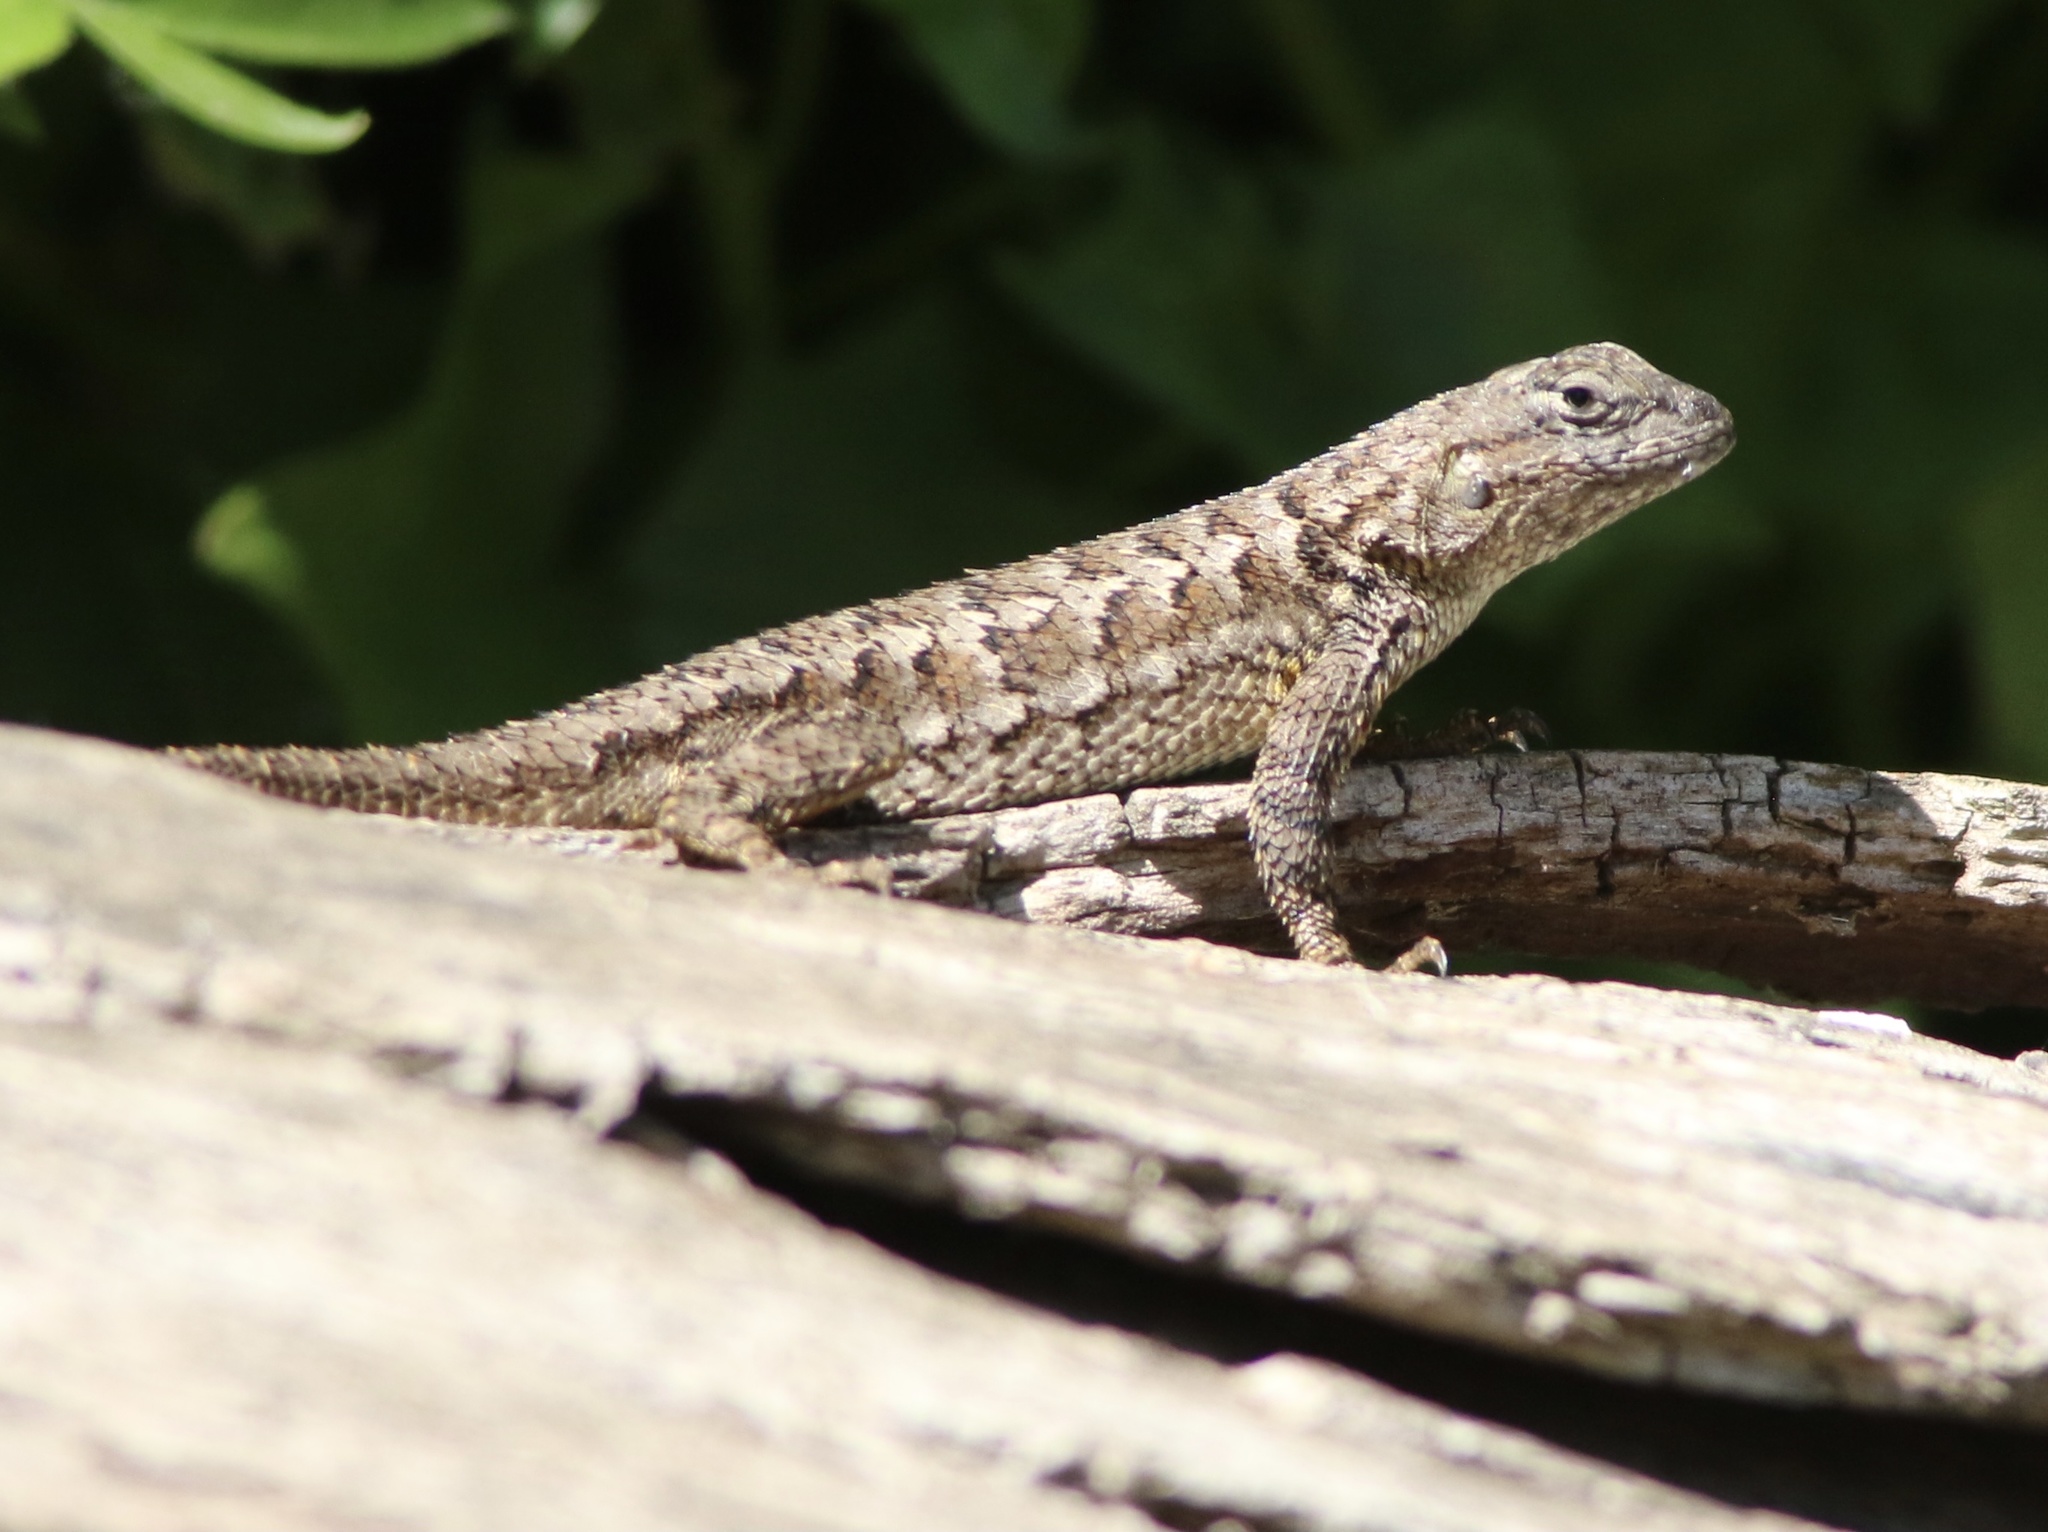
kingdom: Animalia
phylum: Chordata
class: Squamata
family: Phrynosomatidae
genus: Sceloporus
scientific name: Sceloporus occidentalis
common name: Western fence lizard
